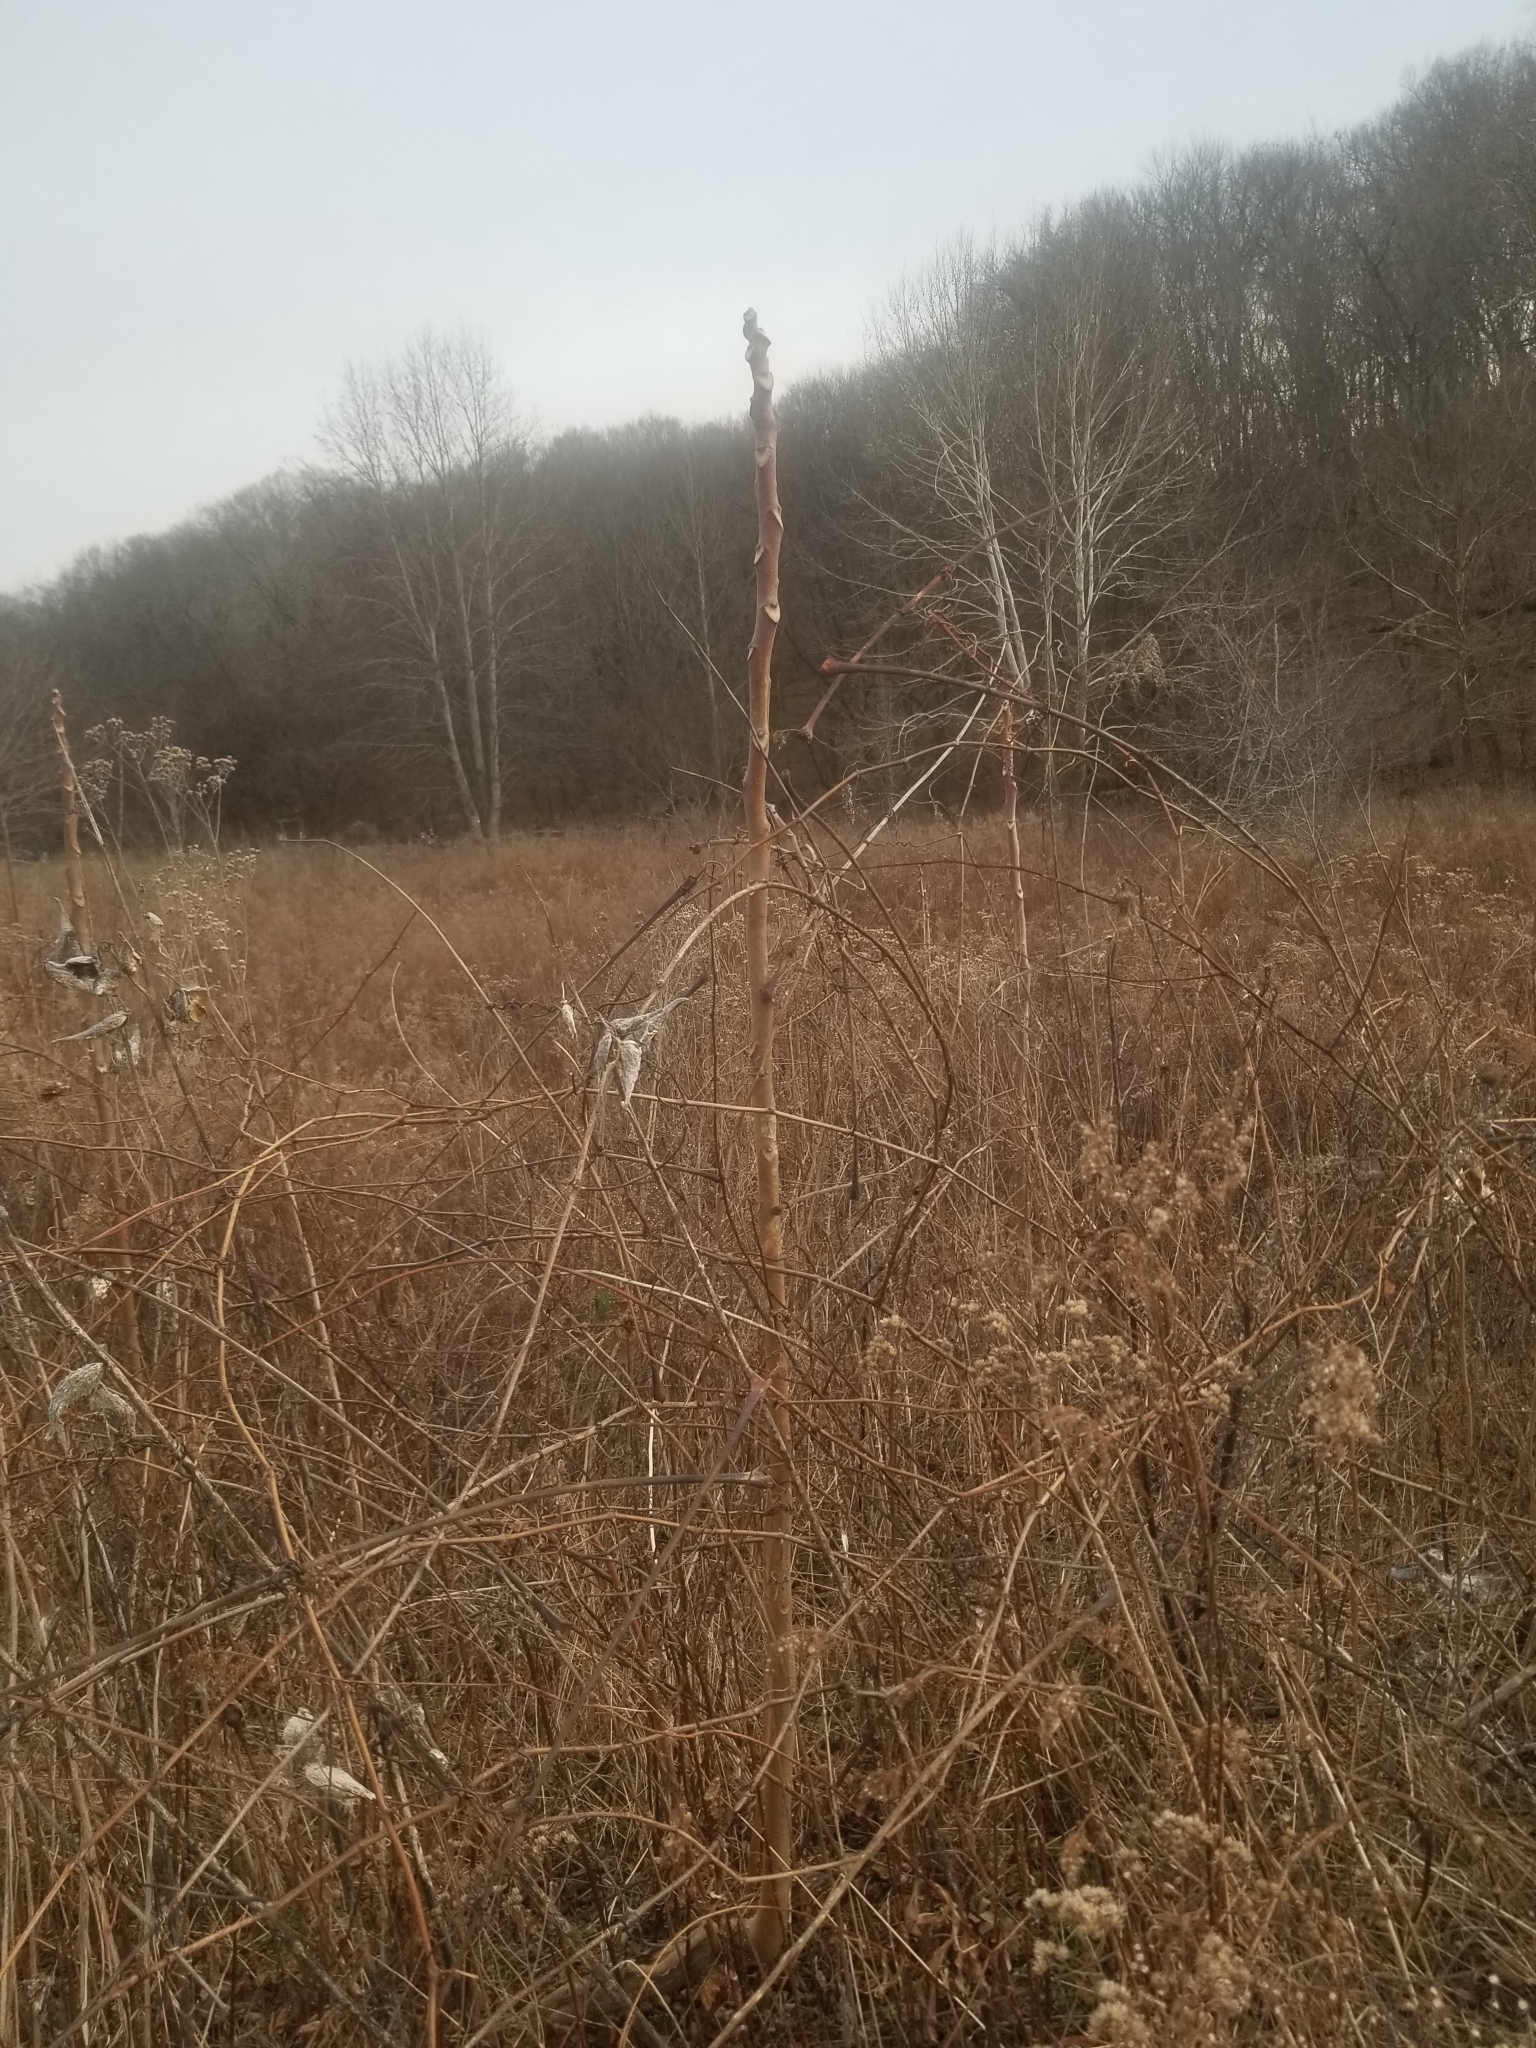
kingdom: Plantae
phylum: Tracheophyta
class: Magnoliopsida
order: Sapindales
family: Simaroubaceae
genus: Ailanthus
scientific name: Ailanthus altissima
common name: Tree-of-heaven
